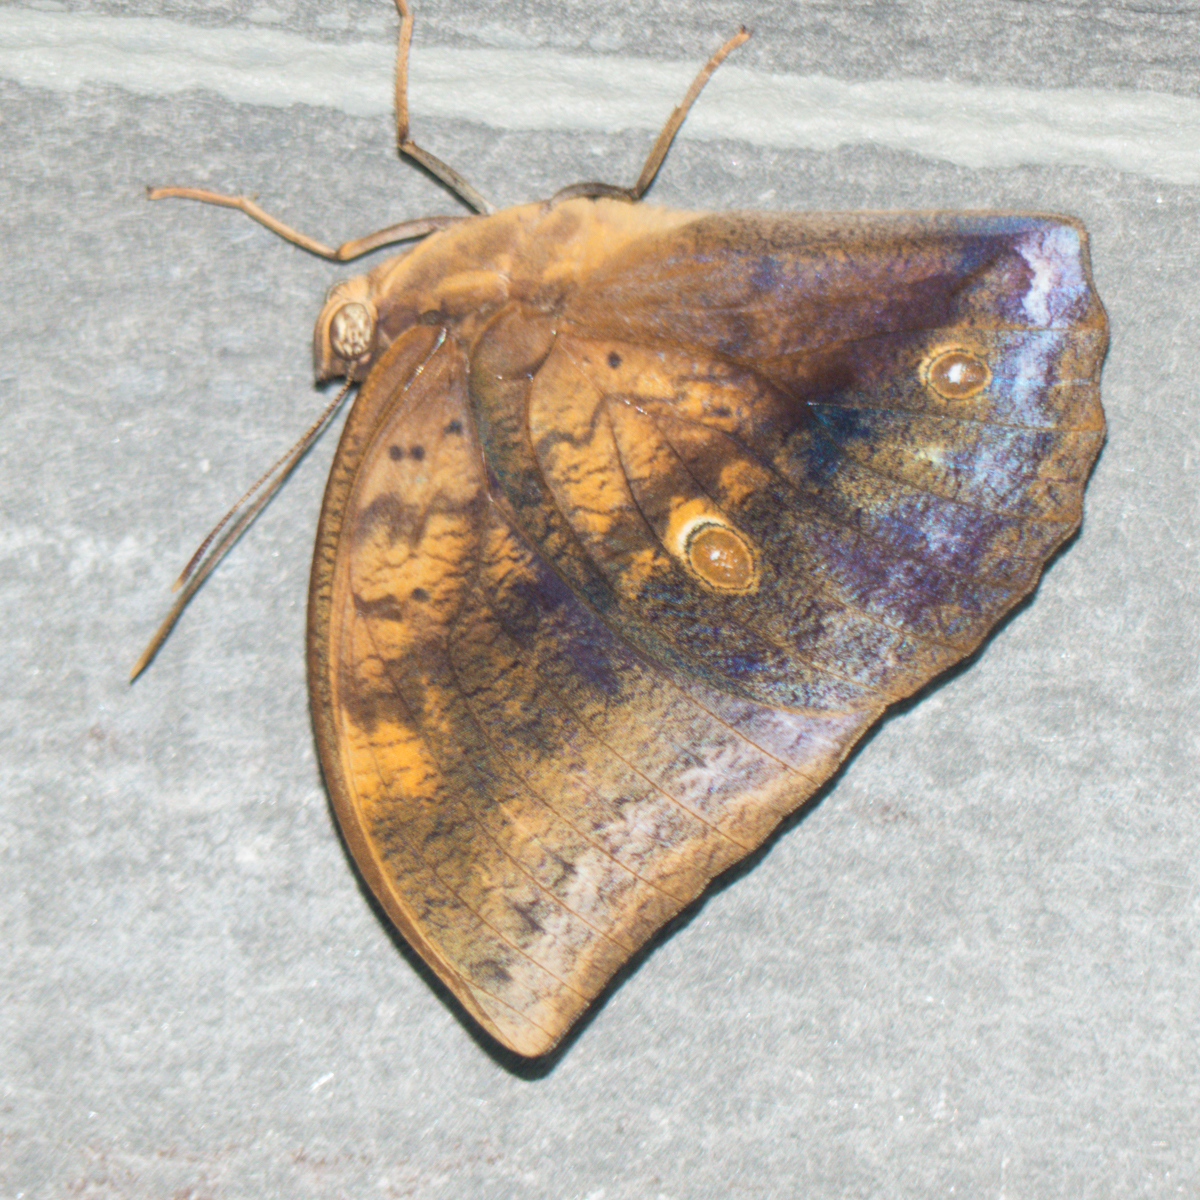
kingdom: Animalia
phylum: Arthropoda
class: Insecta
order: Lepidoptera
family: Nymphalidae
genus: Discophora
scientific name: Discophora timora
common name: Great duffer
